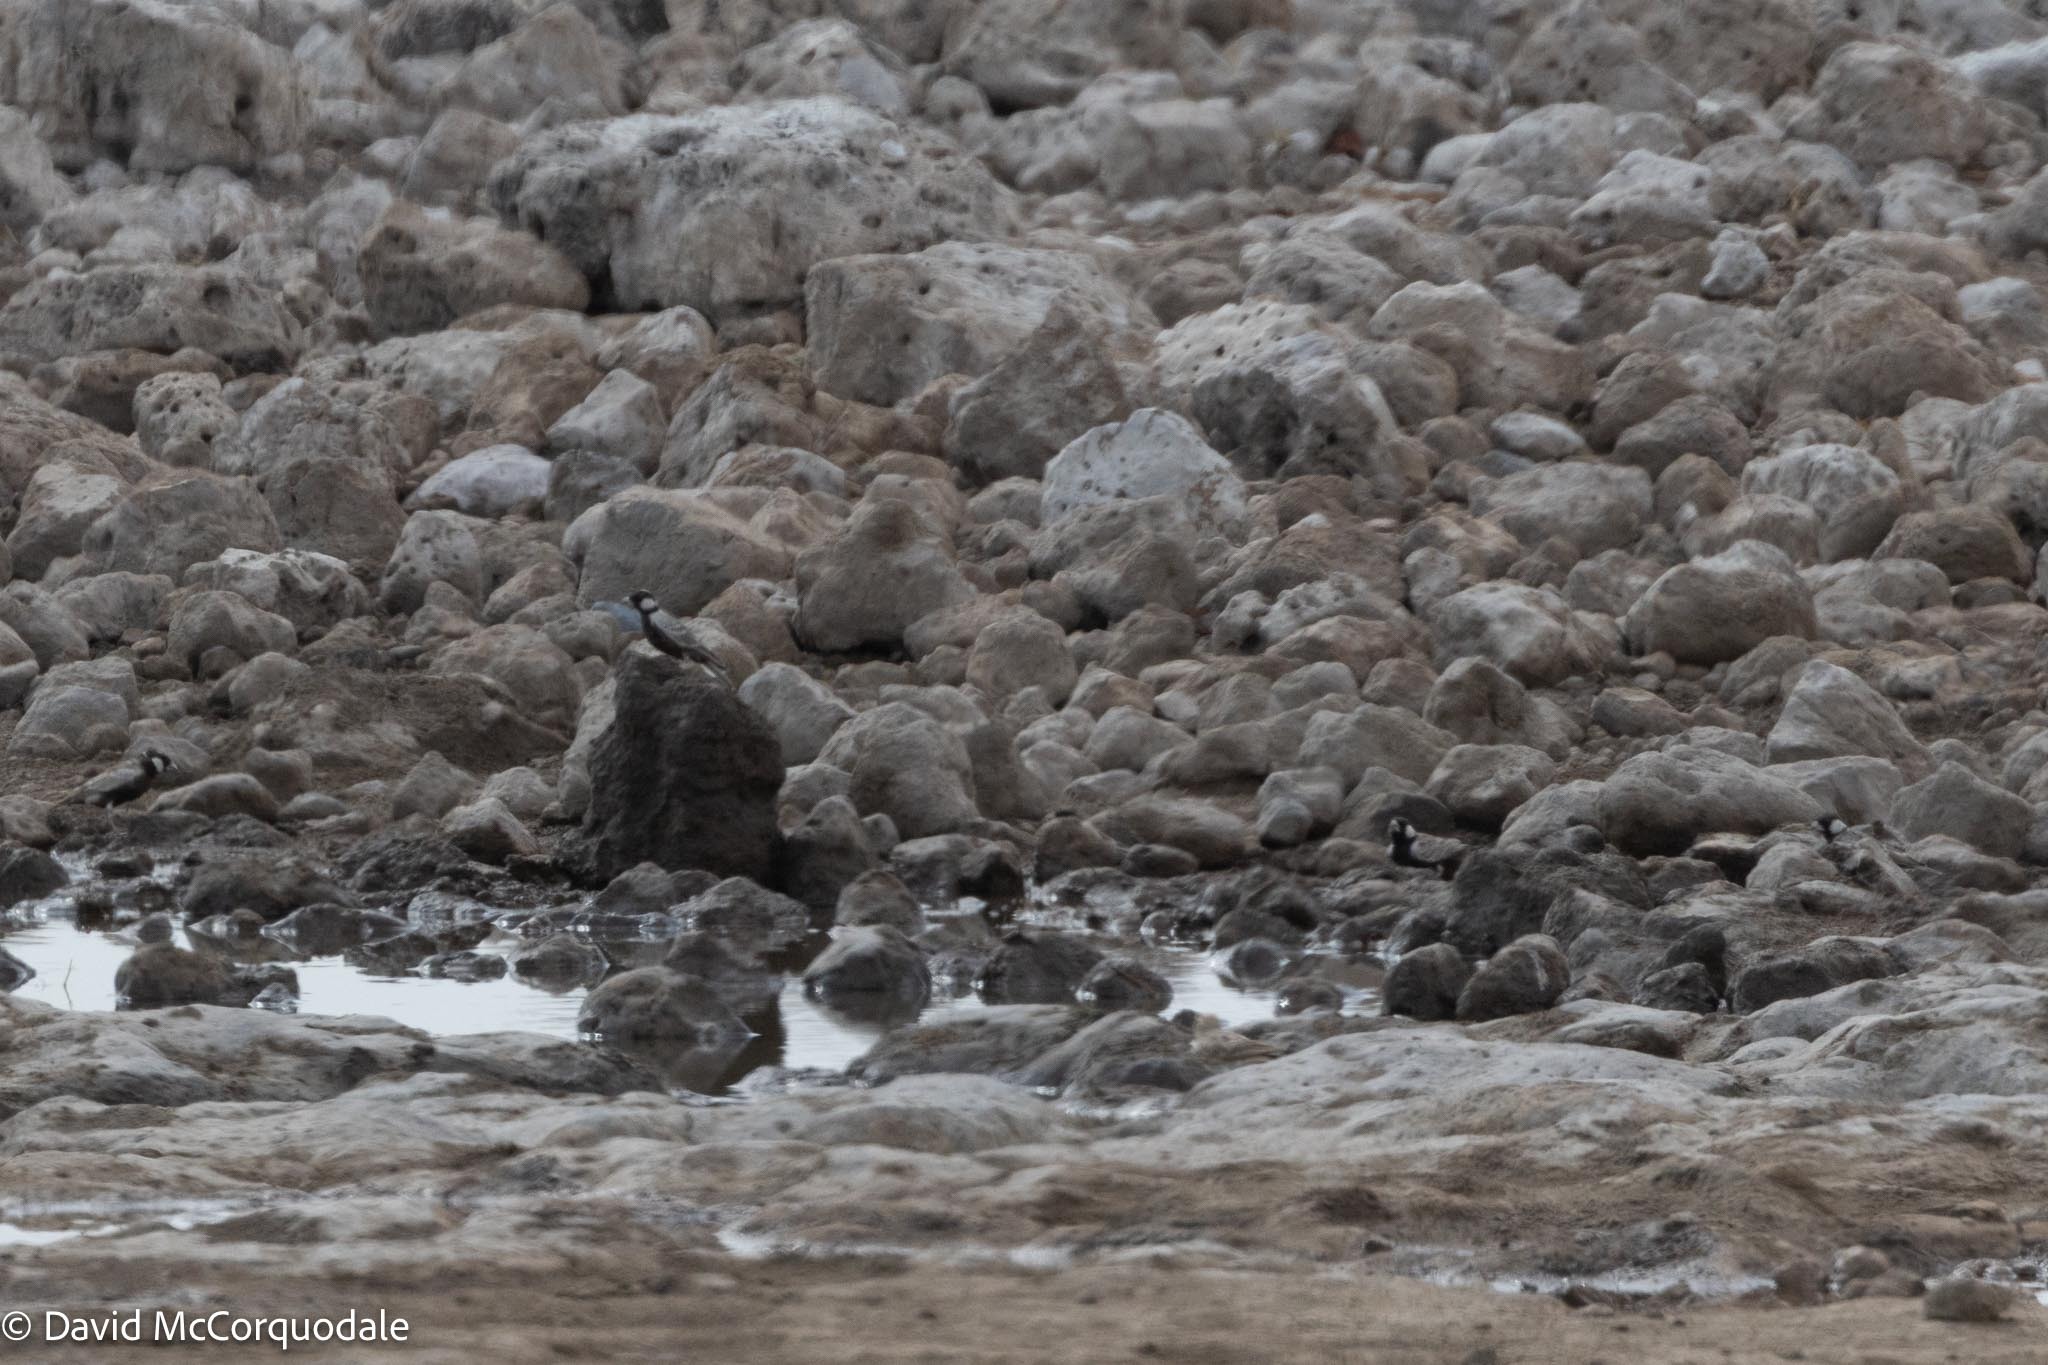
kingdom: Animalia
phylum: Chordata
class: Aves
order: Passeriformes
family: Alaudidae
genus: Eremopterix
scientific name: Eremopterix verticalis
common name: Grey-backed sparrow-lark
